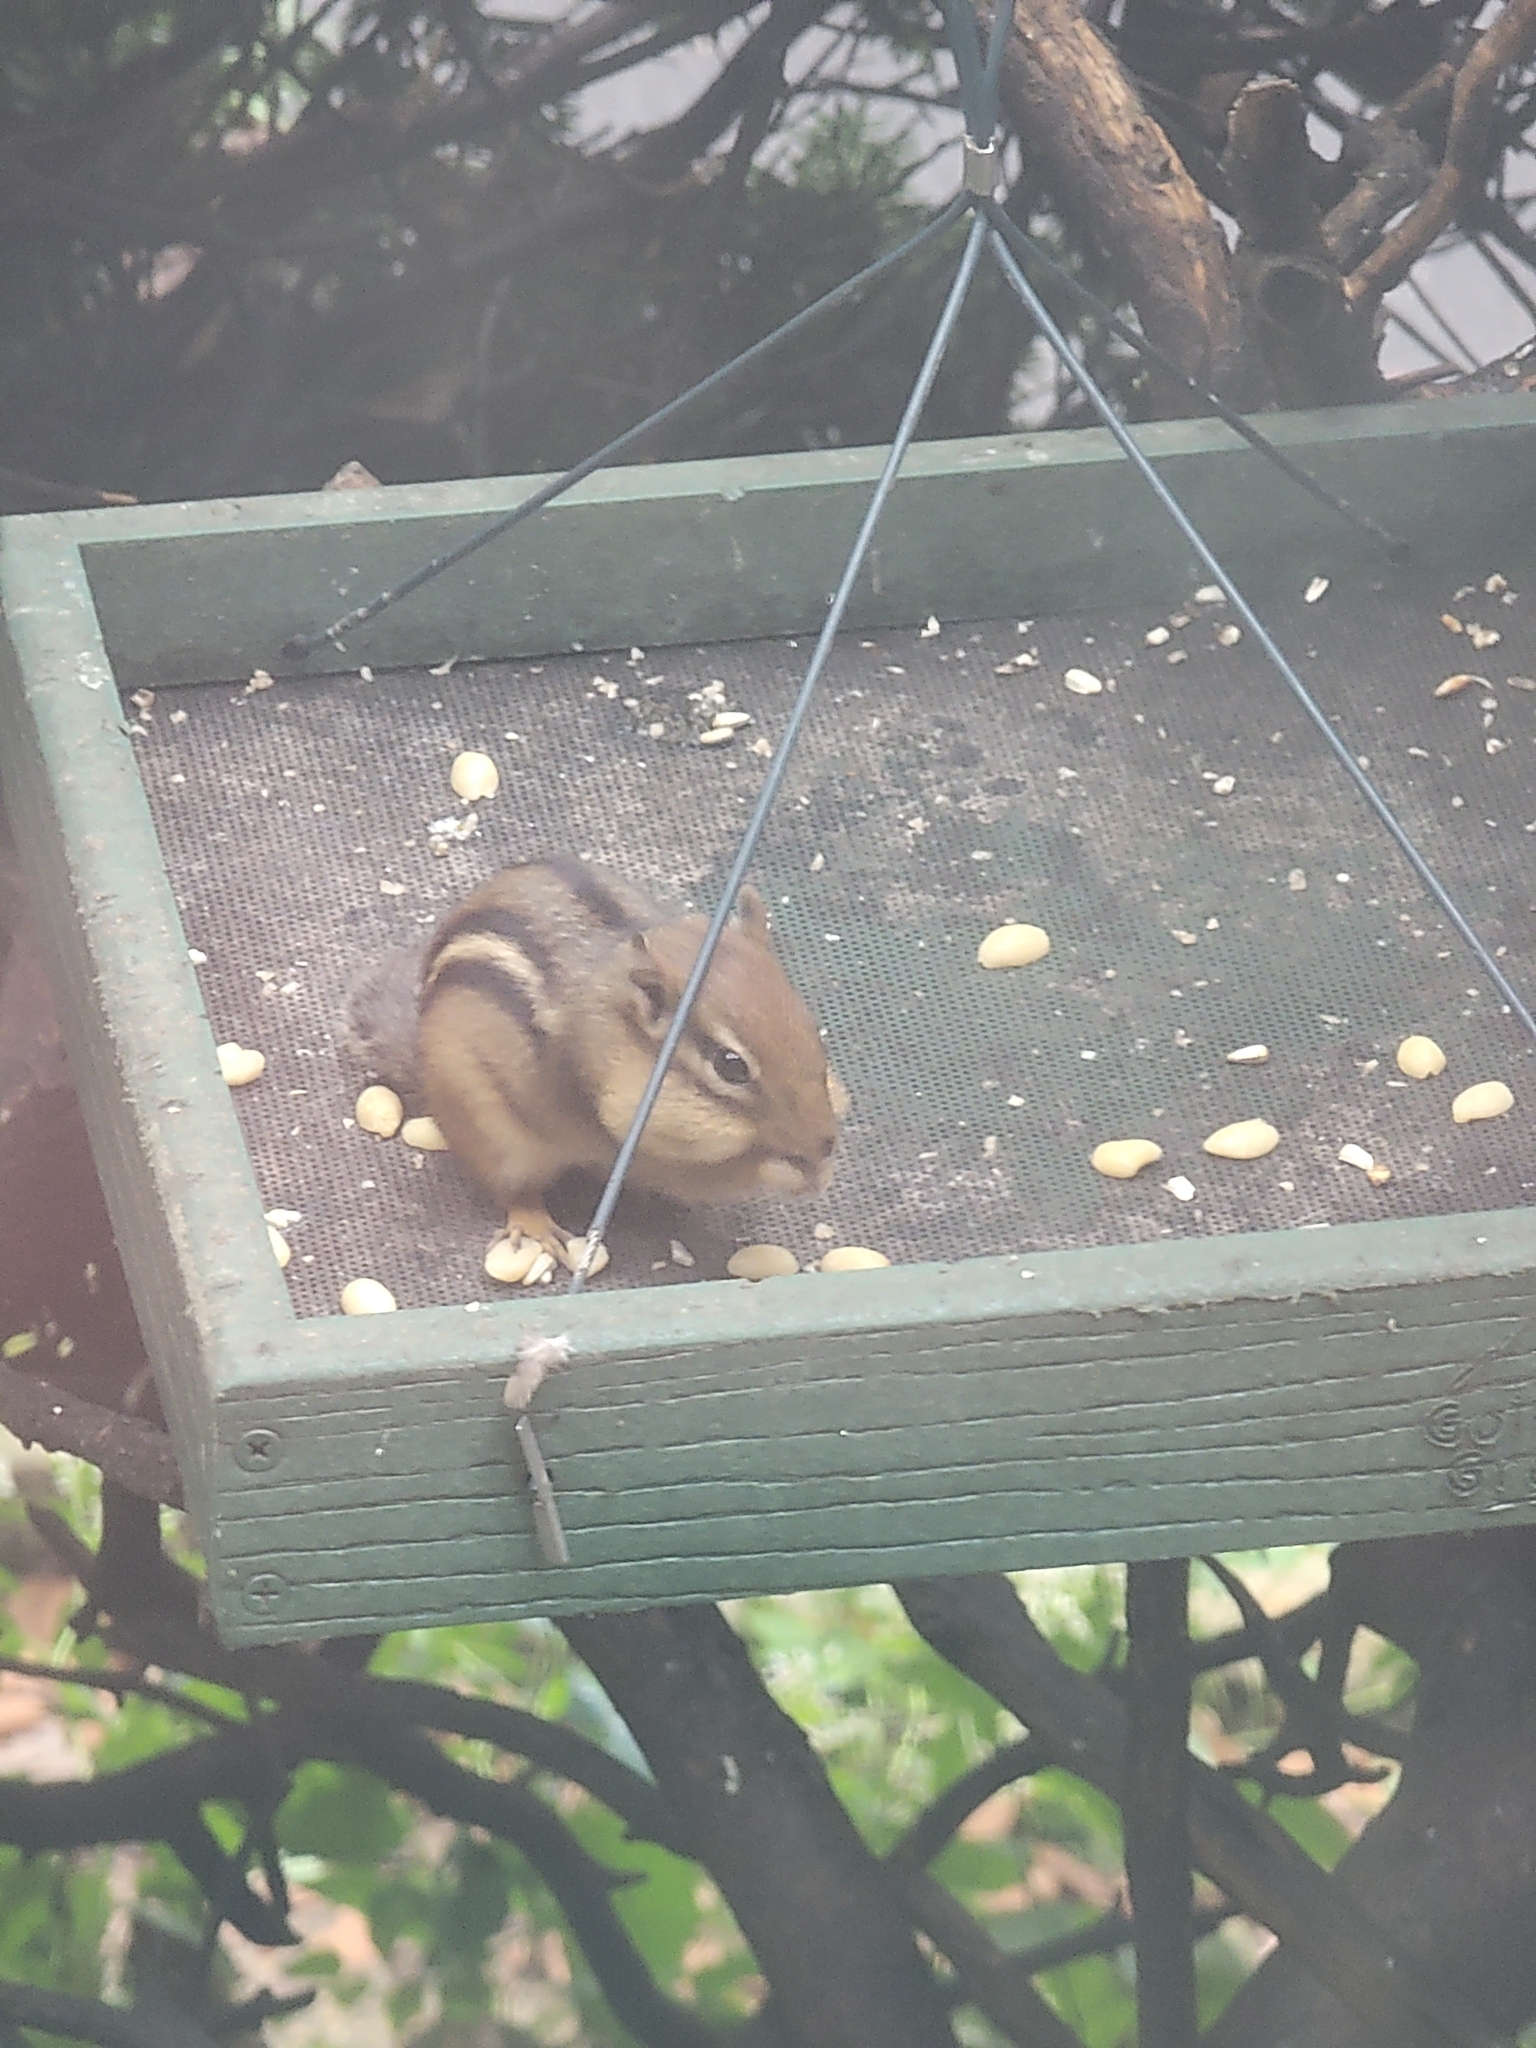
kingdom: Animalia
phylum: Chordata
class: Mammalia
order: Rodentia
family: Sciuridae
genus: Tamias
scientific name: Tamias striatus
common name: Eastern chipmunk
